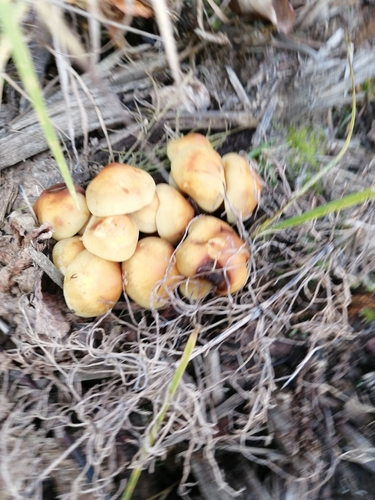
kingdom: Fungi
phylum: Basidiomycota
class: Agaricomycetes
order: Agaricales
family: Strophariaceae
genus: Hypholoma
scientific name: Hypholoma capnoides
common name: Conifer tuft
